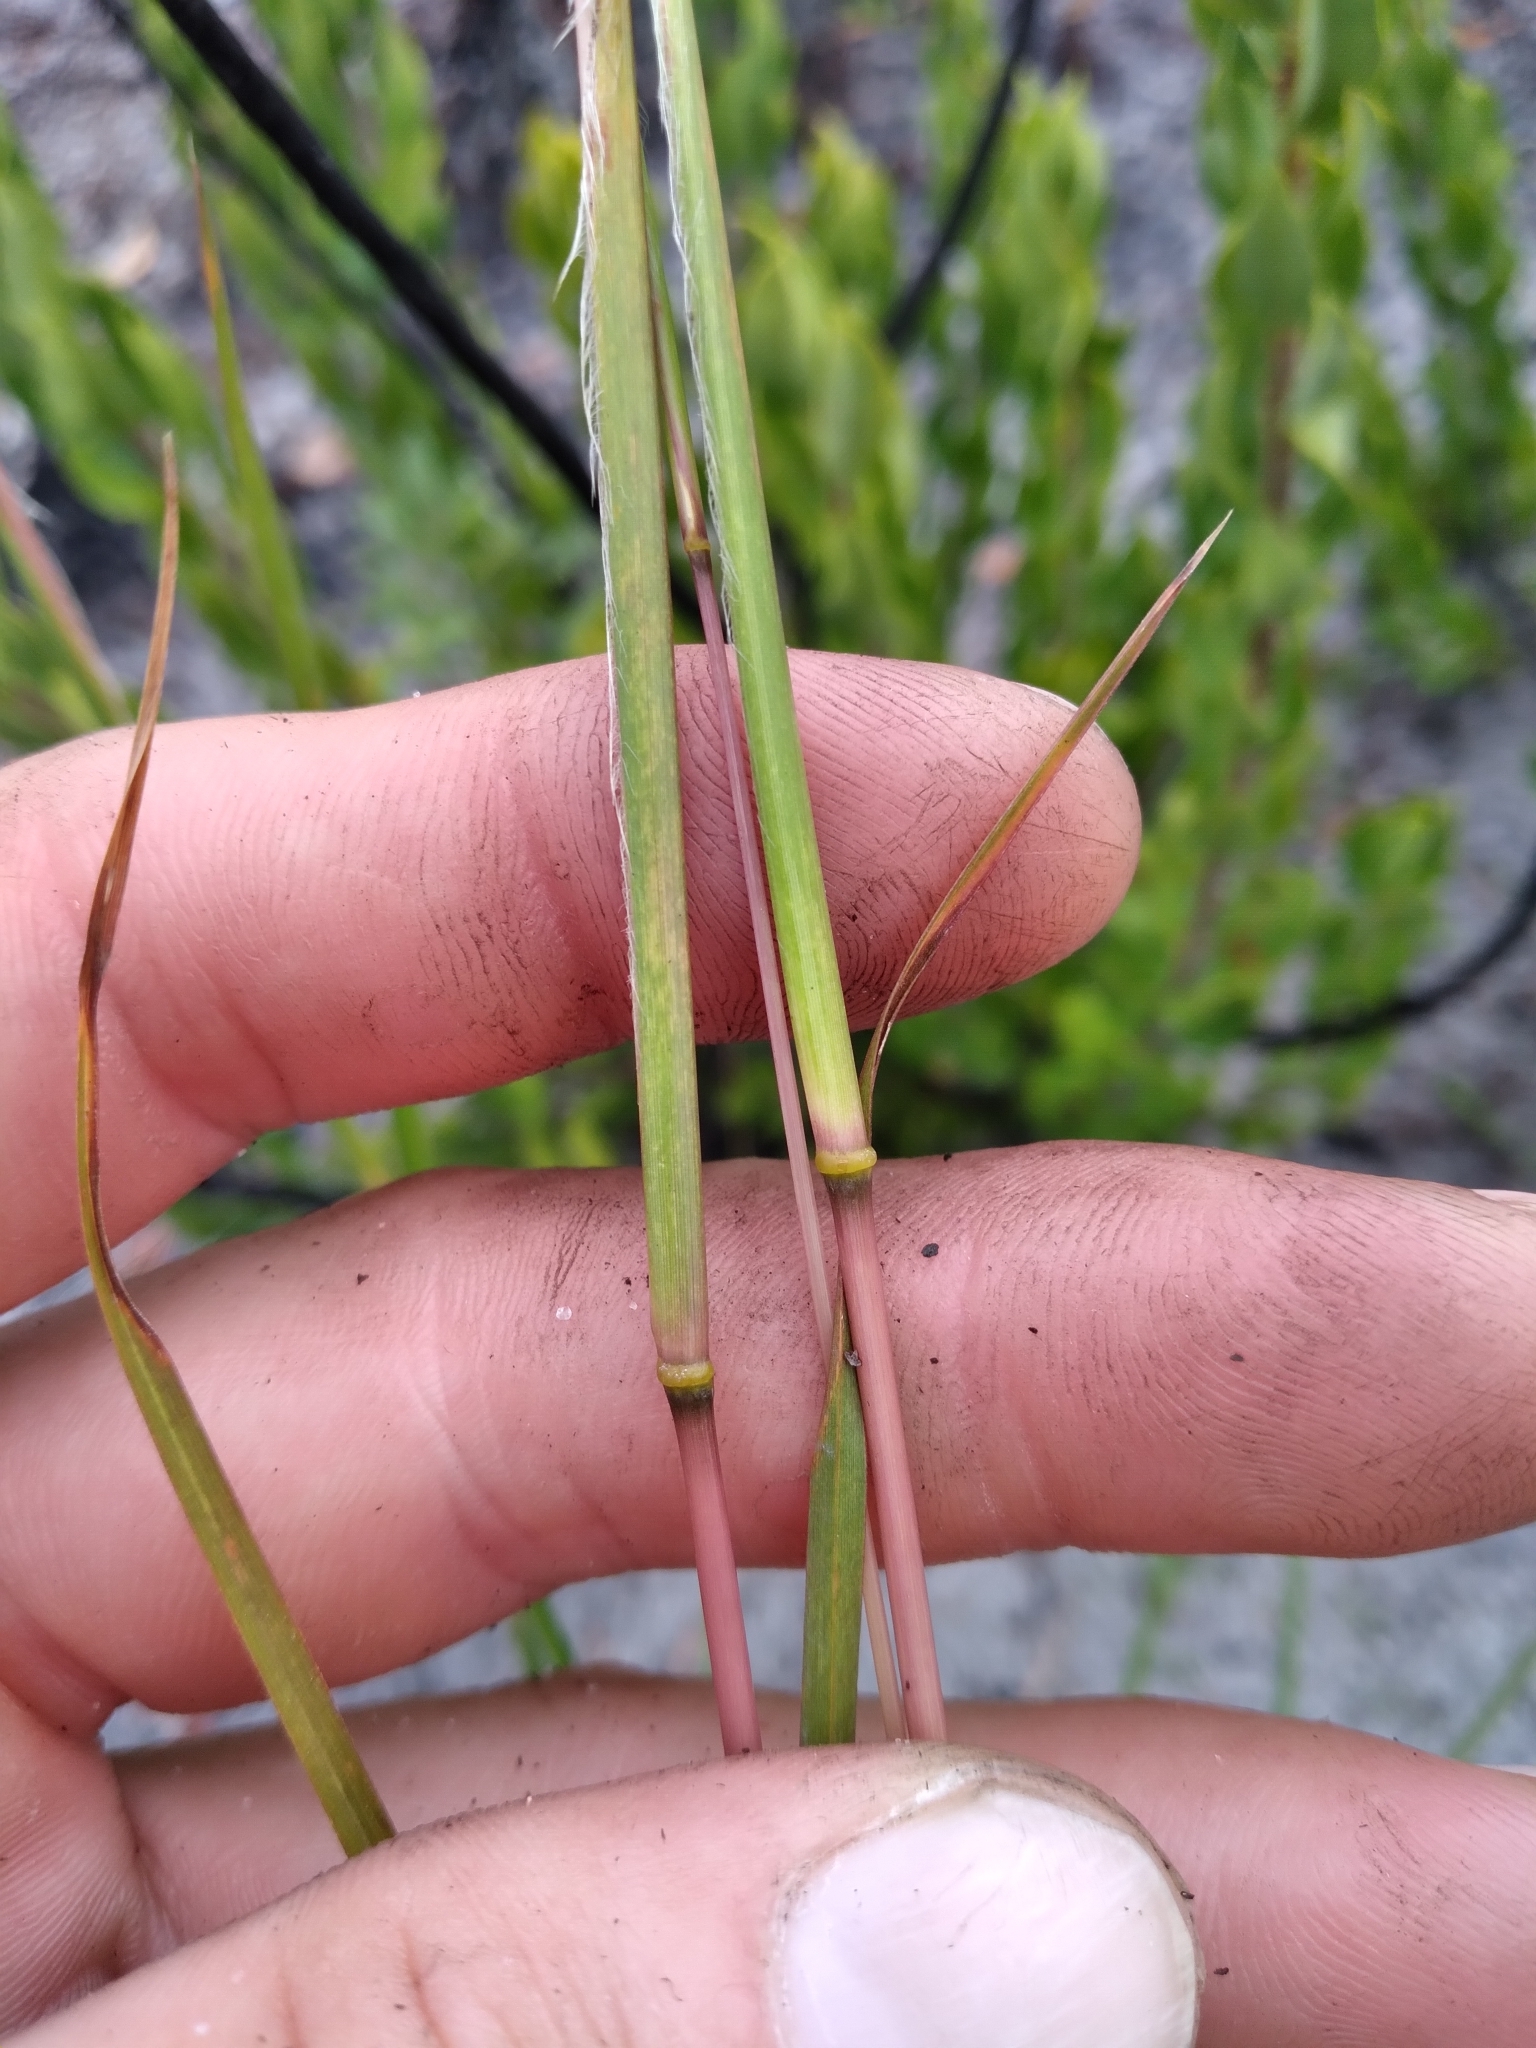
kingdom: Plantae
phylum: Tracheophyta
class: Liliopsida
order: Poales
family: Poaceae
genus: Andropogon
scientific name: Andropogon virginicus
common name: Broomsedge bluestem
